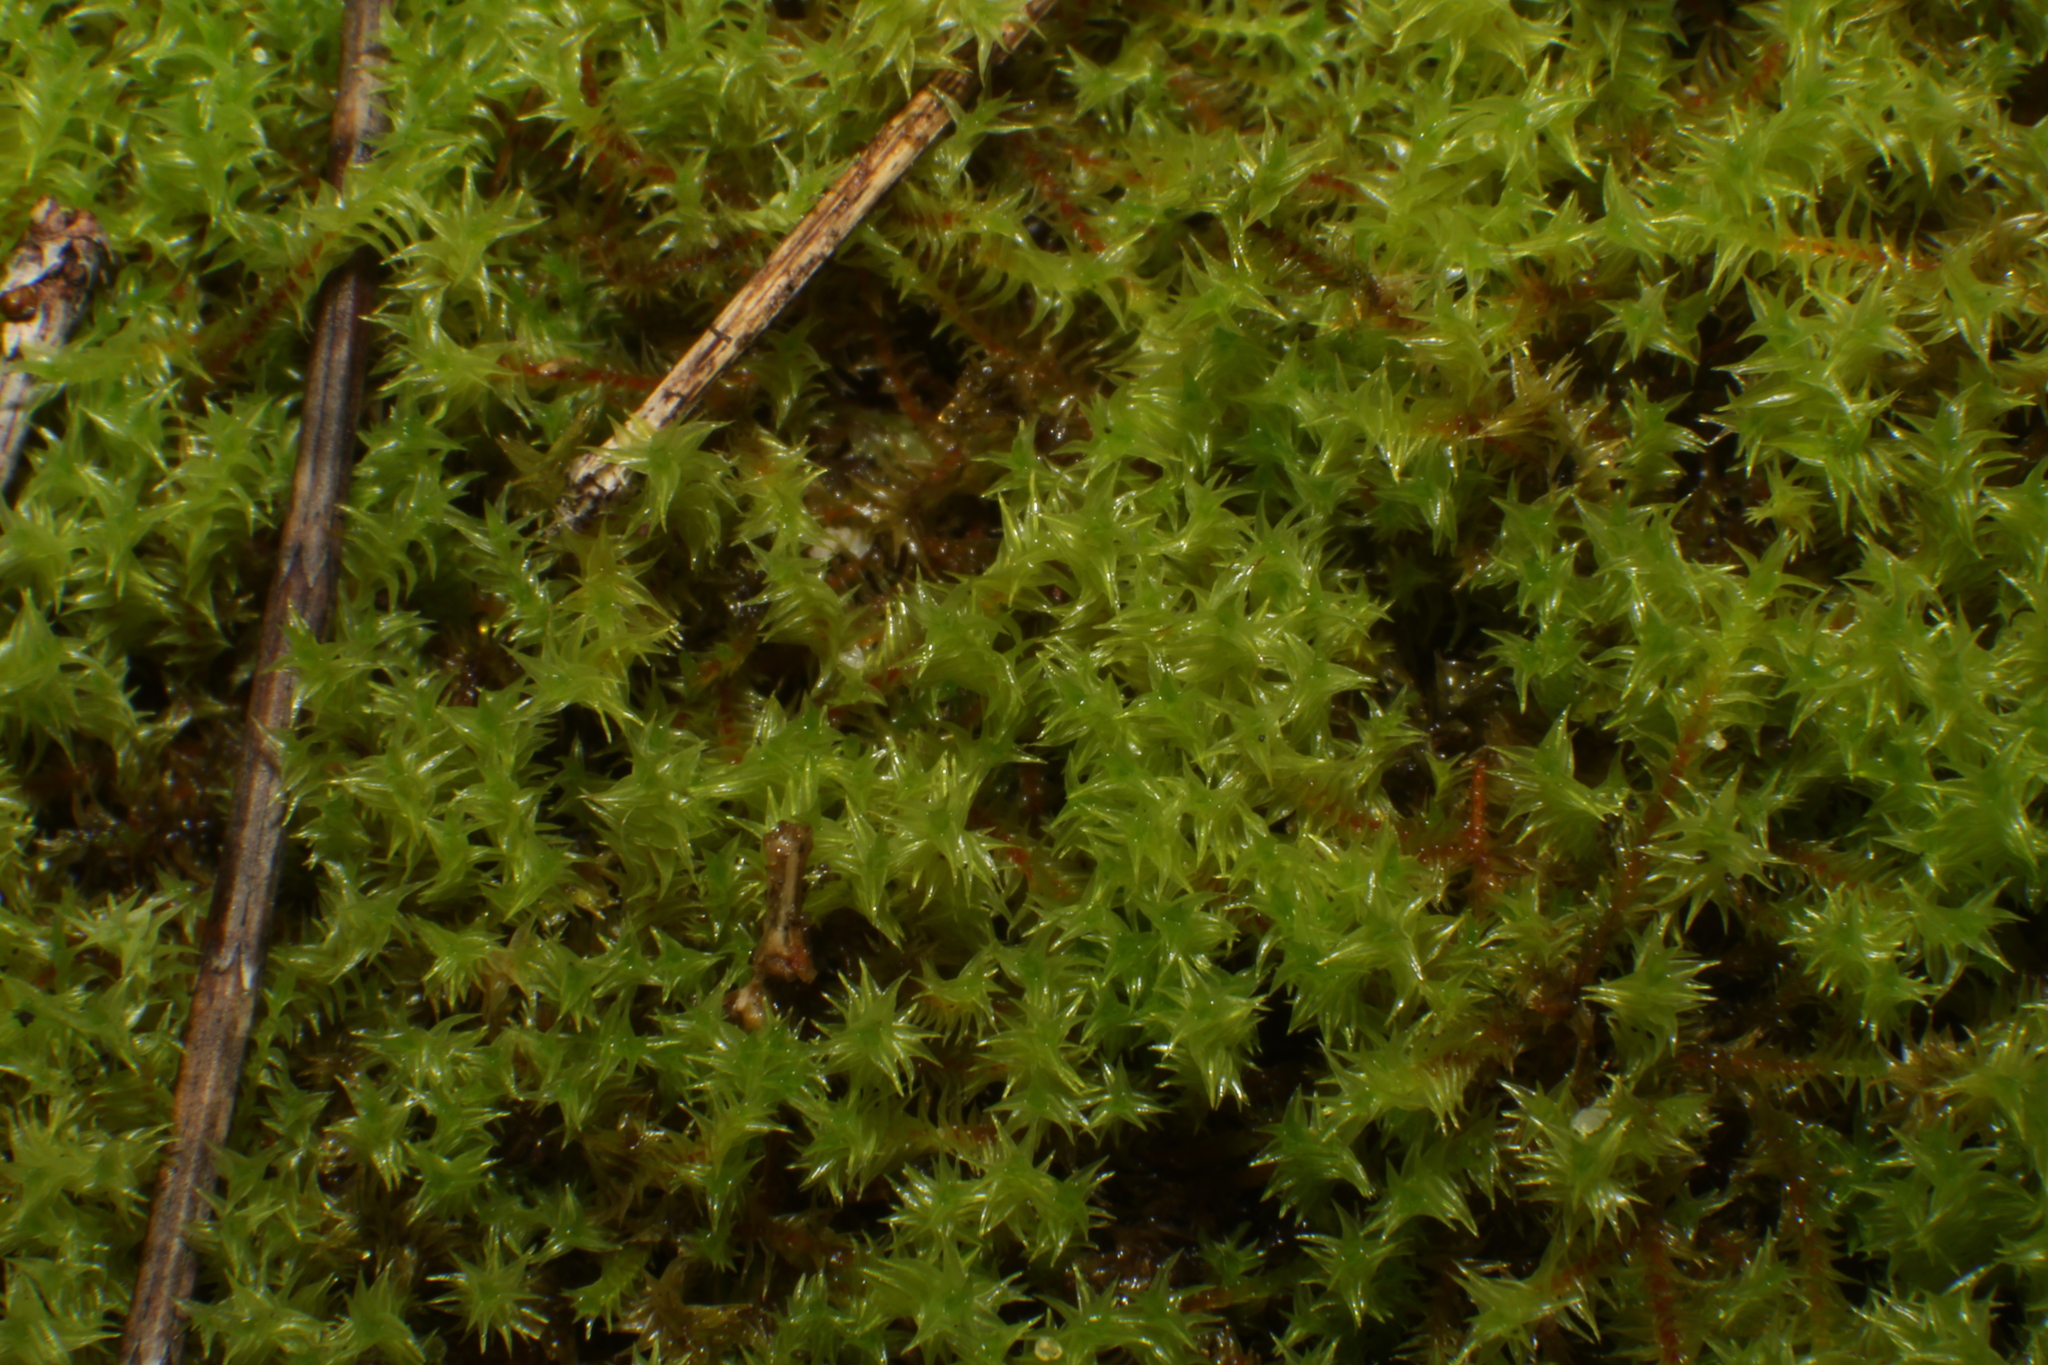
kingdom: Plantae
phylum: Bryophyta
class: Bryopsida
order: Pottiales
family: Pottiaceae
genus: Triquetrella
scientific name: Triquetrella papillata
